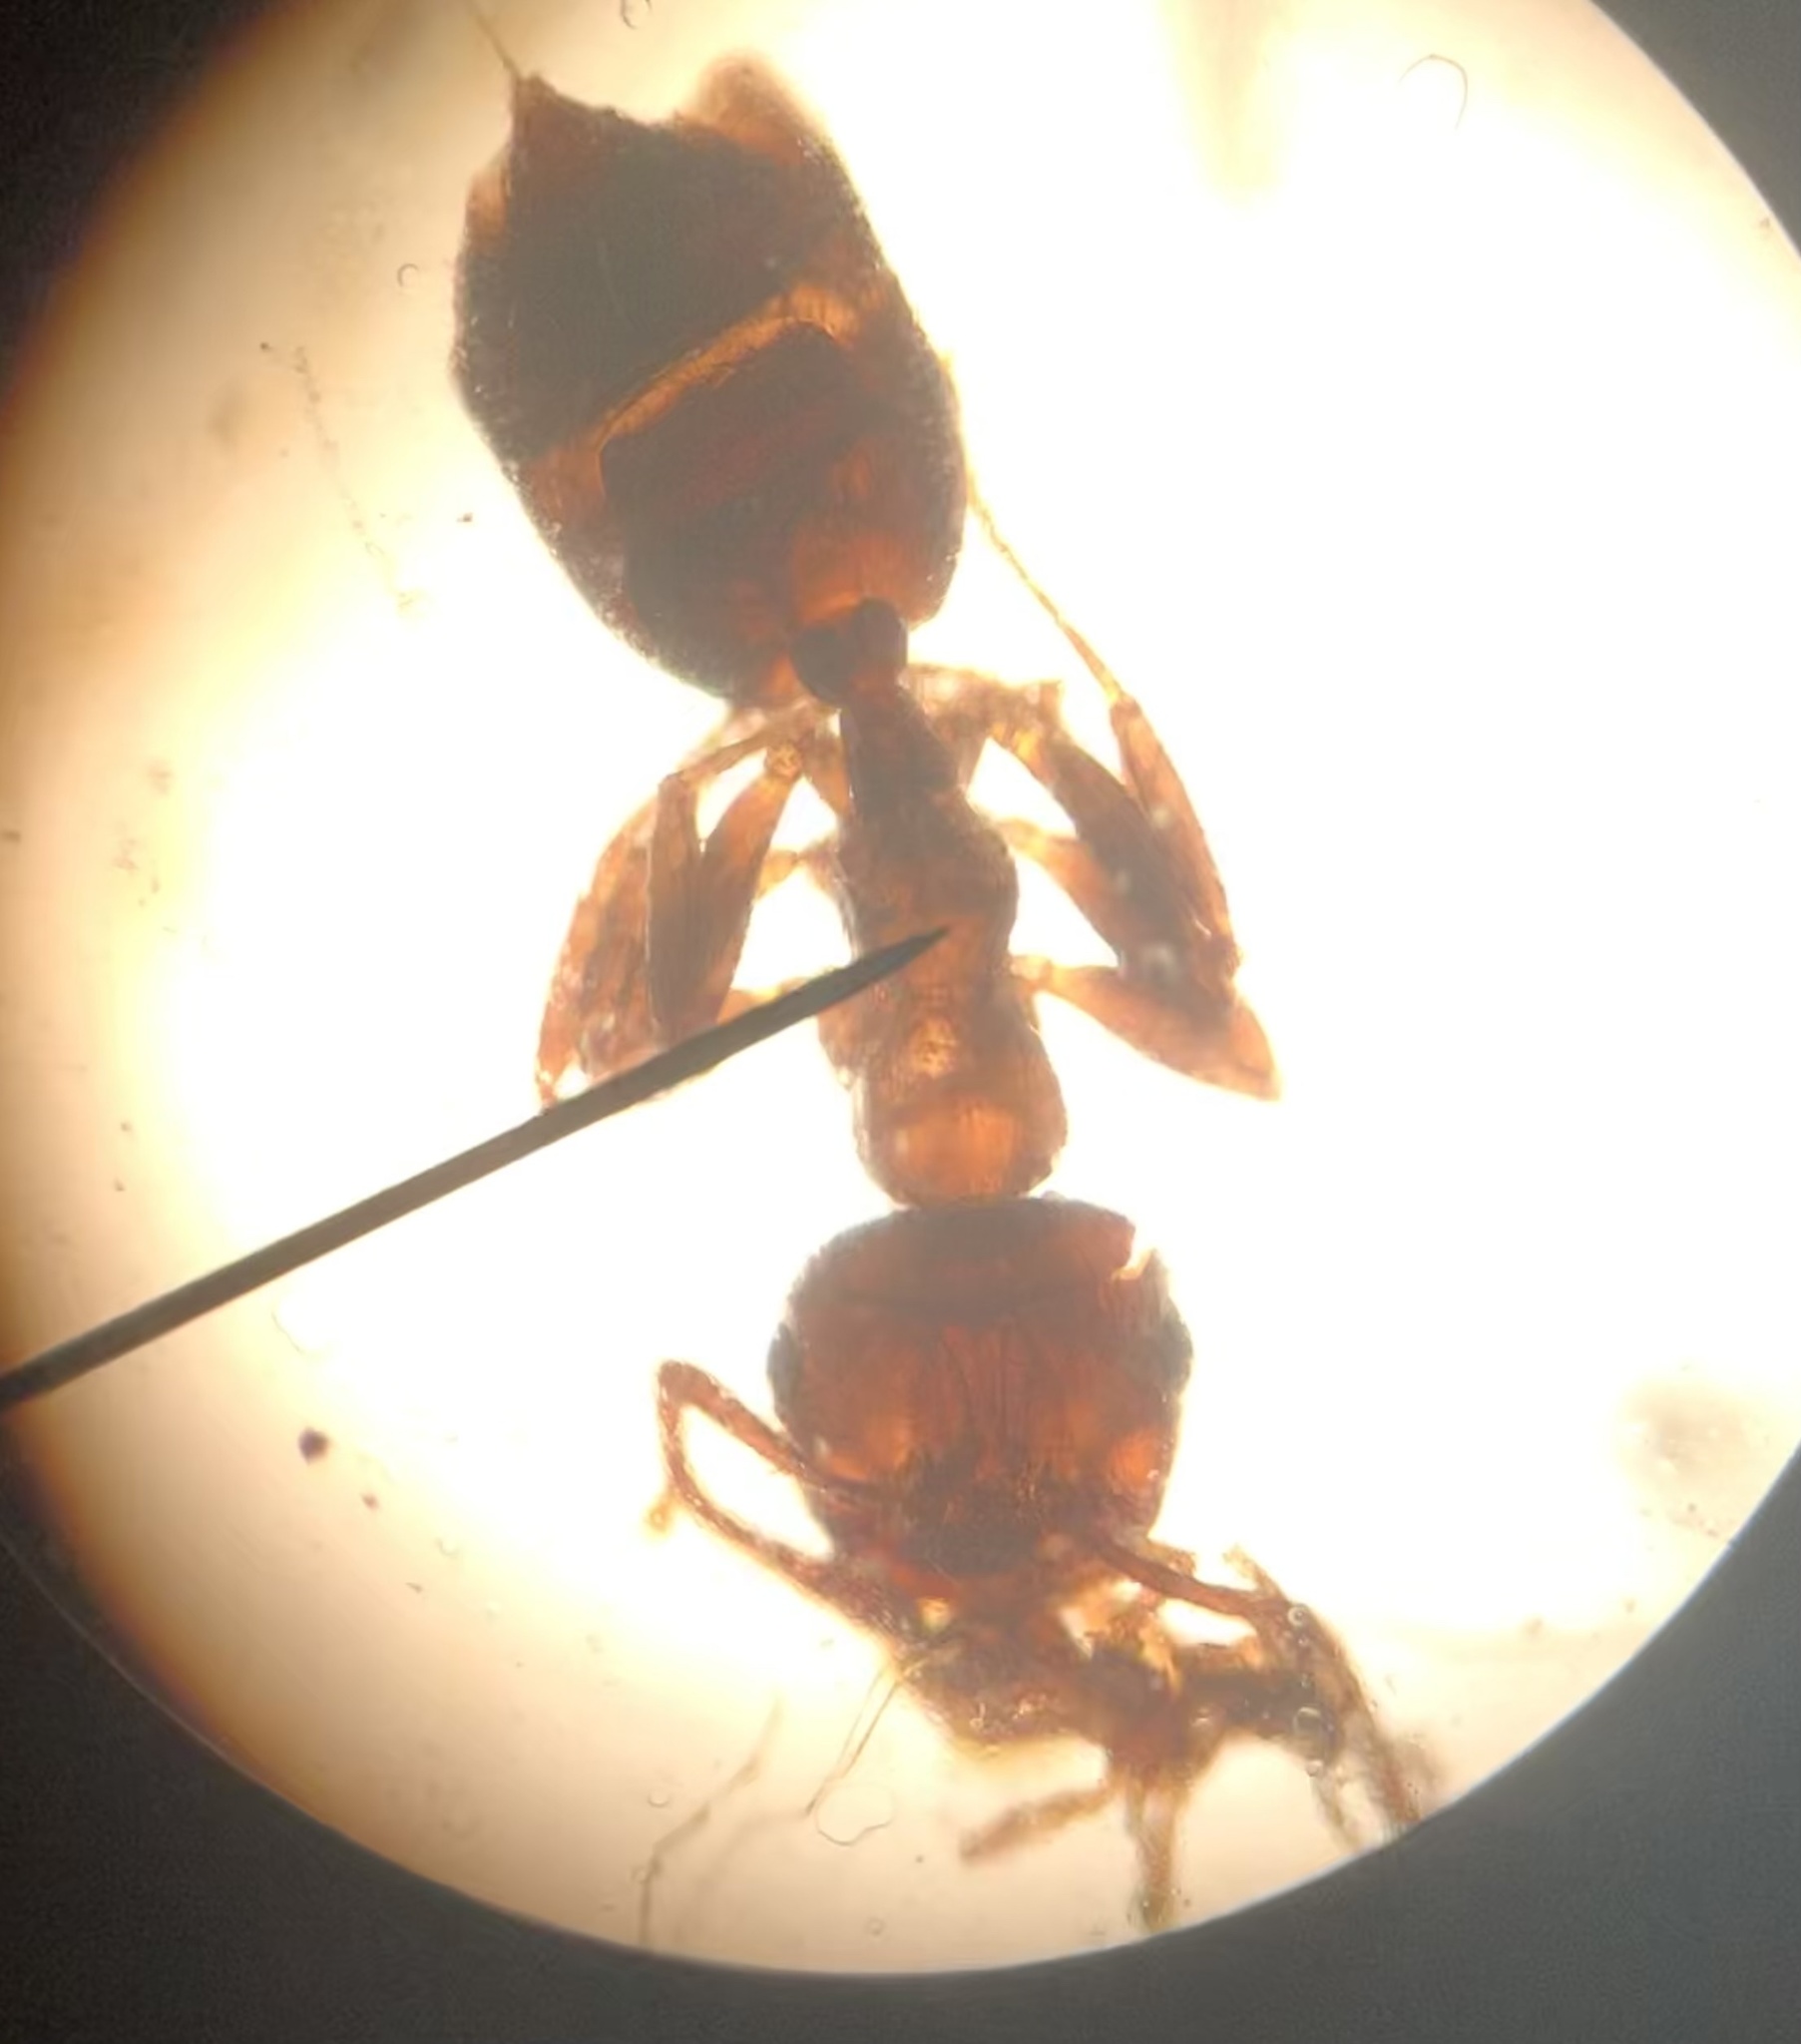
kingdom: Animalia
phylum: Arthropoda
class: Insecta
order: Hymenoptera
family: Formicidae
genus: Crematogaster
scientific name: Crematogaster ashmeadi
